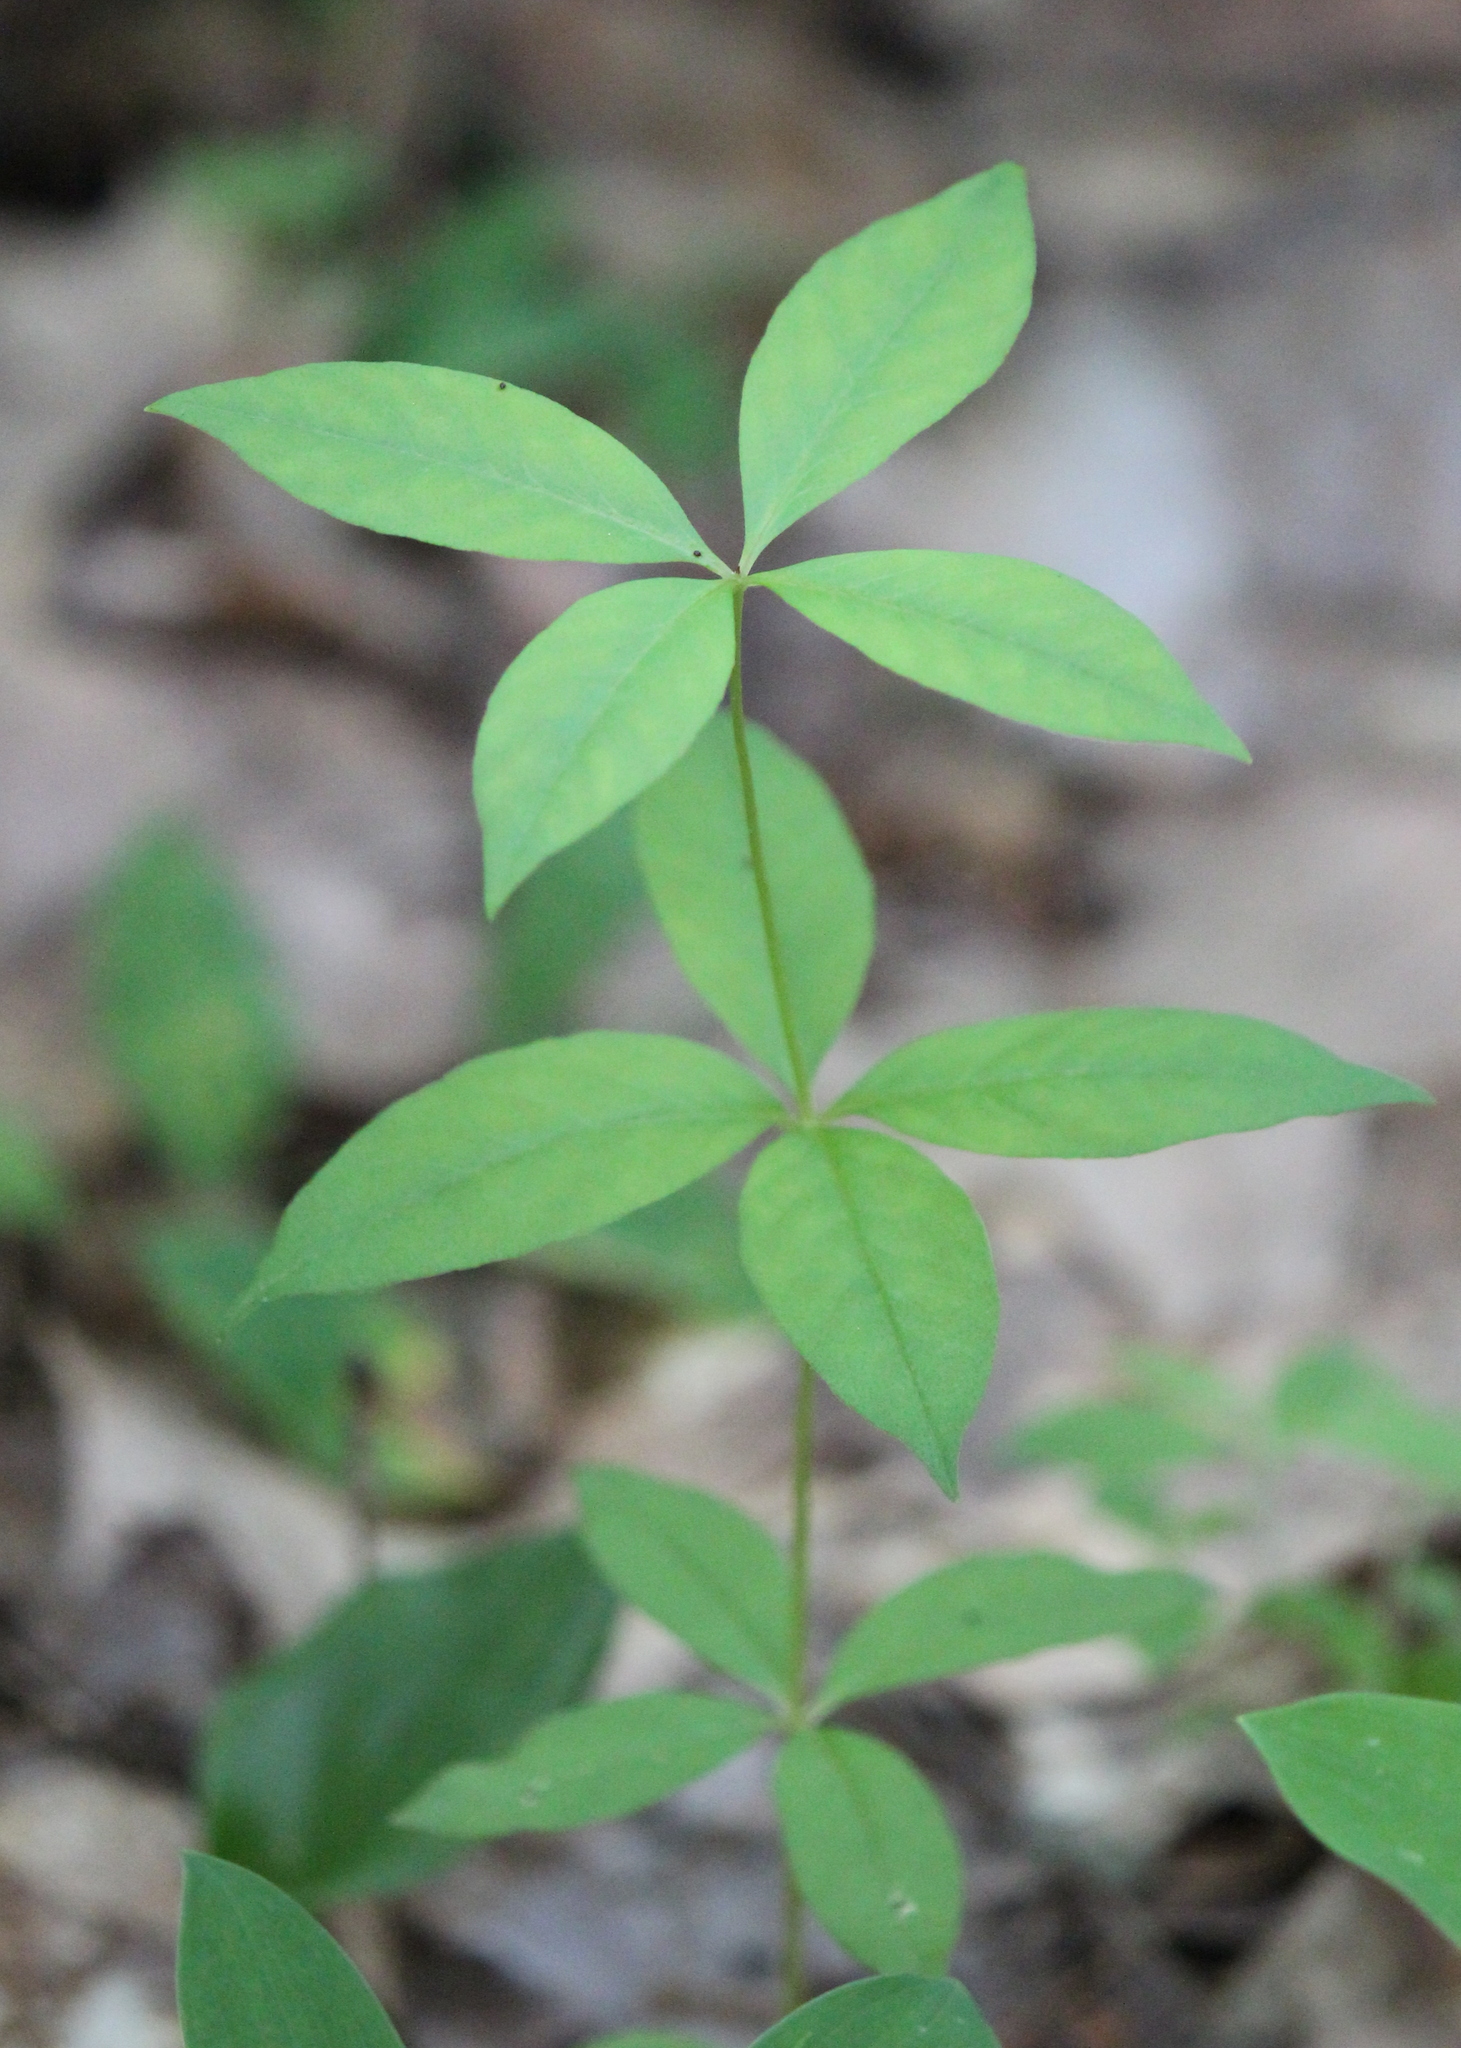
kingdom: Plantae
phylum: Tracheophyta
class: Magnoliopsida
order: Ericales
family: Primulaceae
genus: Lysimachia
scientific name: Lysimachia quadrifolia
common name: Whorled loosestrife
